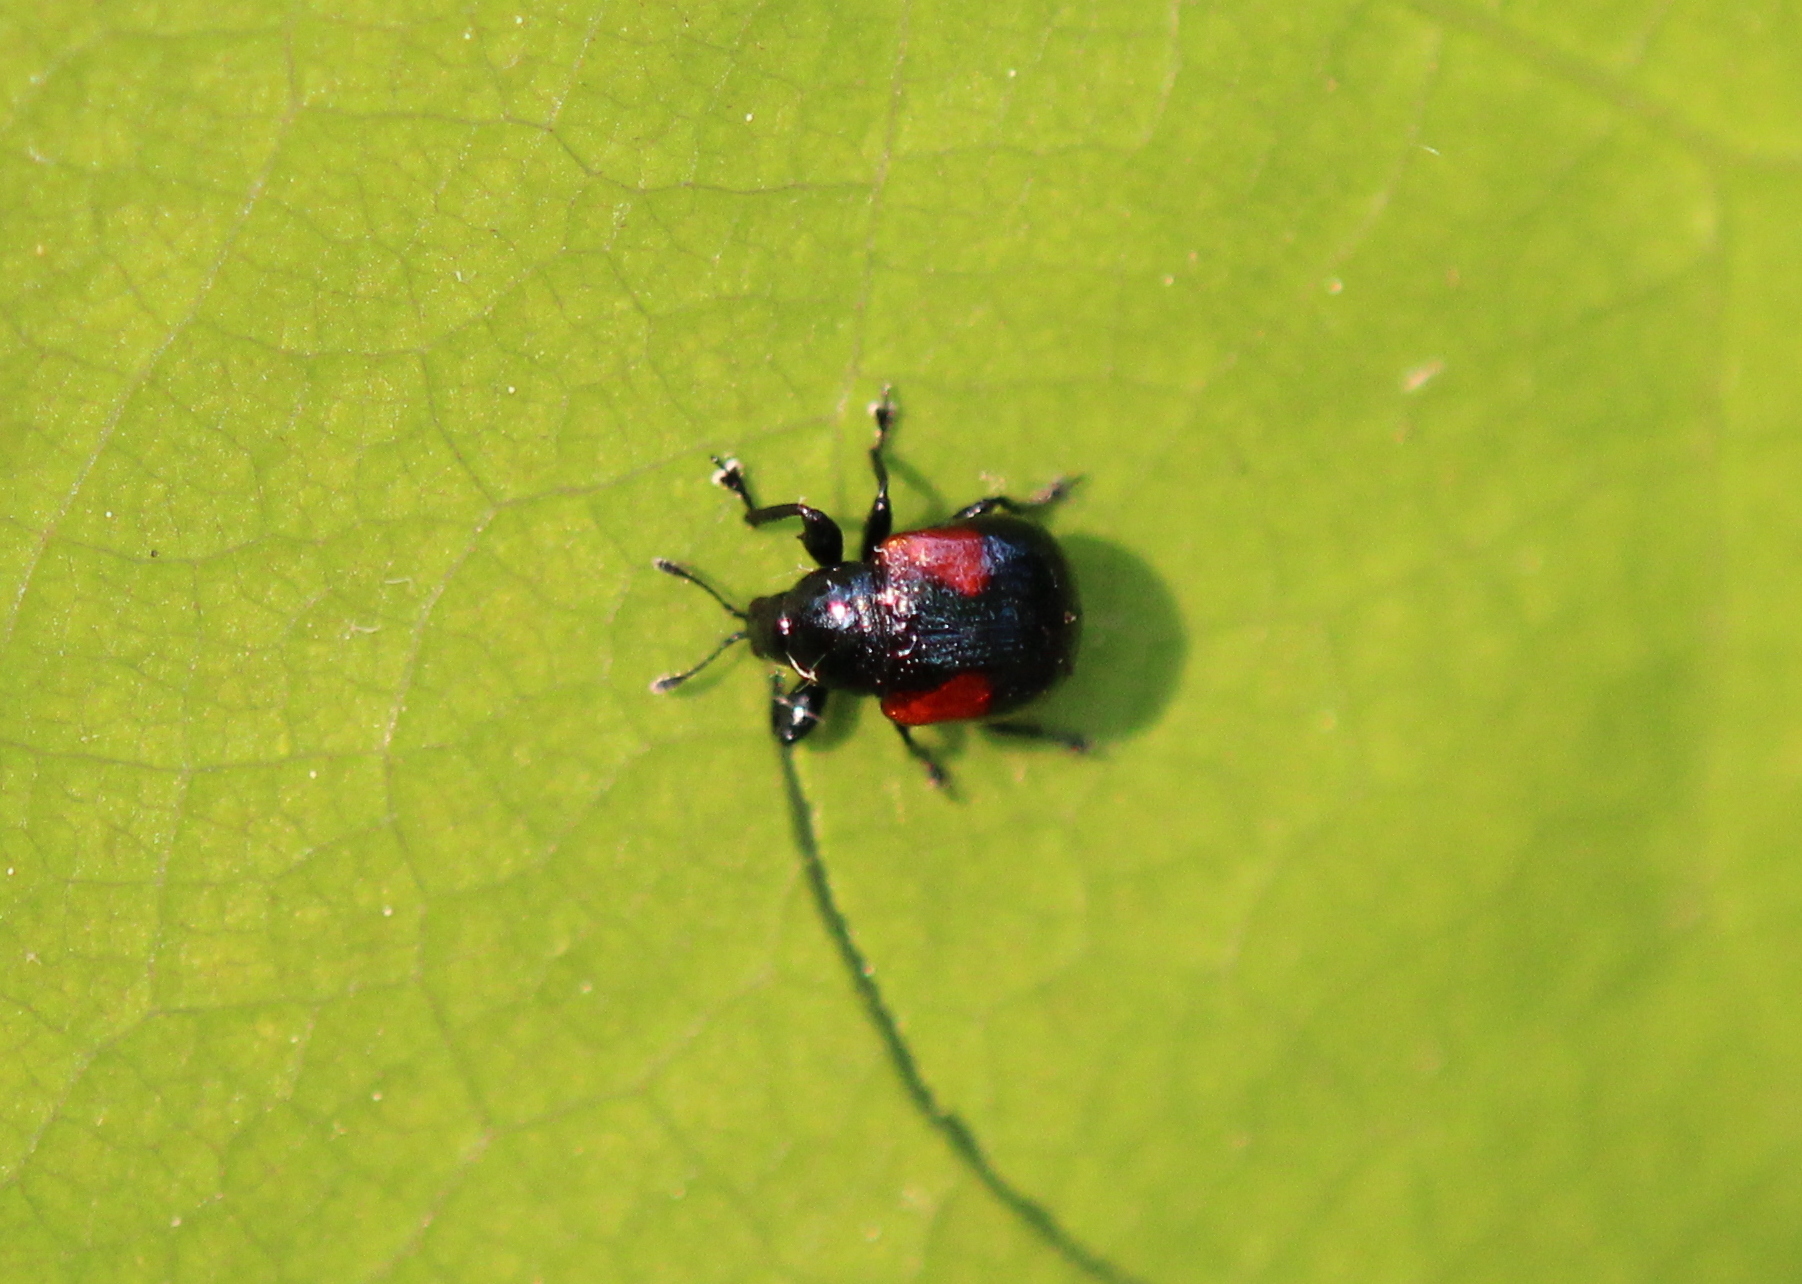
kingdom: Animalia
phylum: Arthropoda
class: Insecta
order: Coleoptera
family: Attelabidae
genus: Attelabus
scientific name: Attelabus bipustulatus
